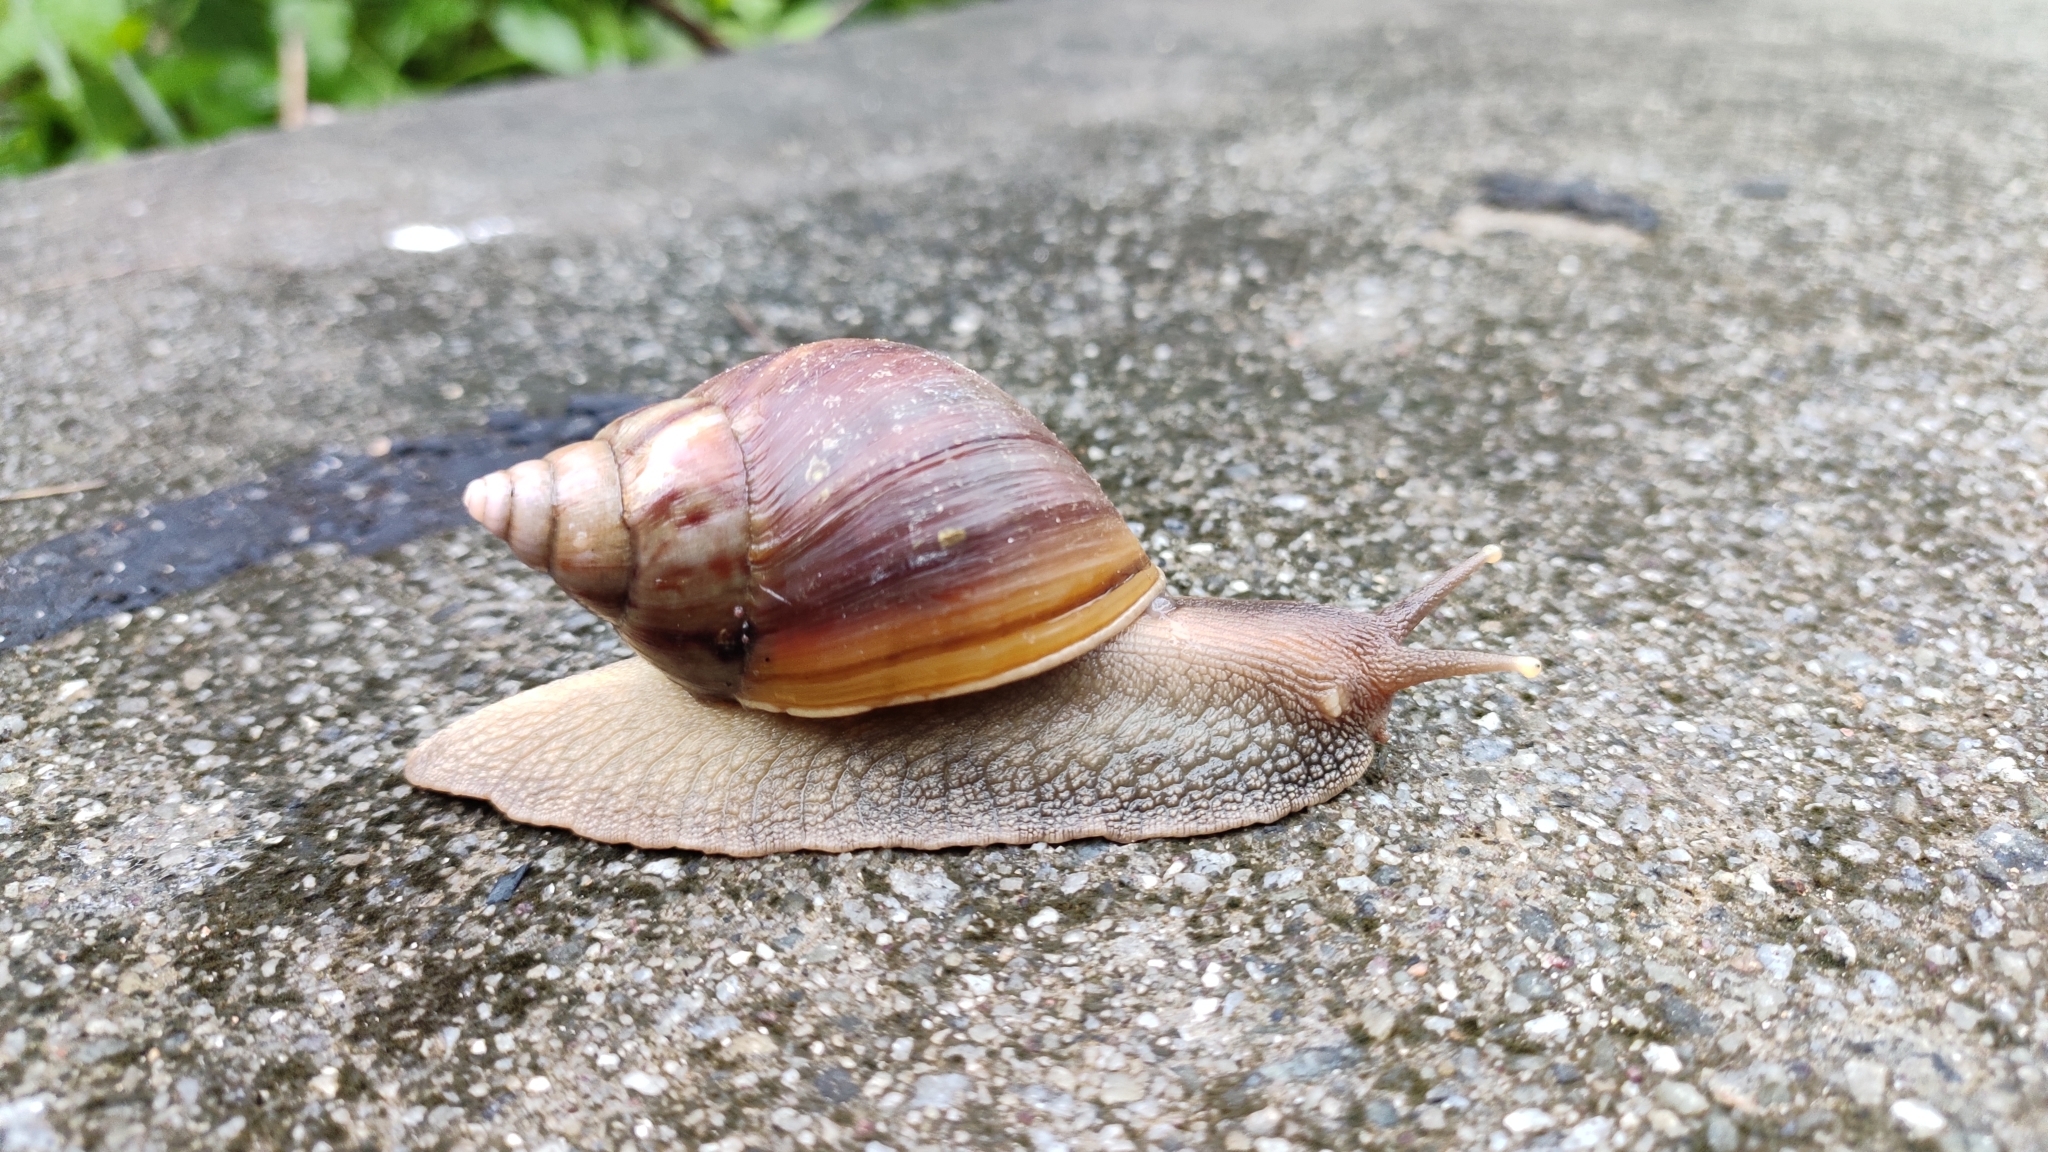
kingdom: Animalia
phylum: Mollusca
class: Gastropoda
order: Stylommatophora
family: Achatinidae
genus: Lissachatina
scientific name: Lissachatina fulica
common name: Giant african snail
